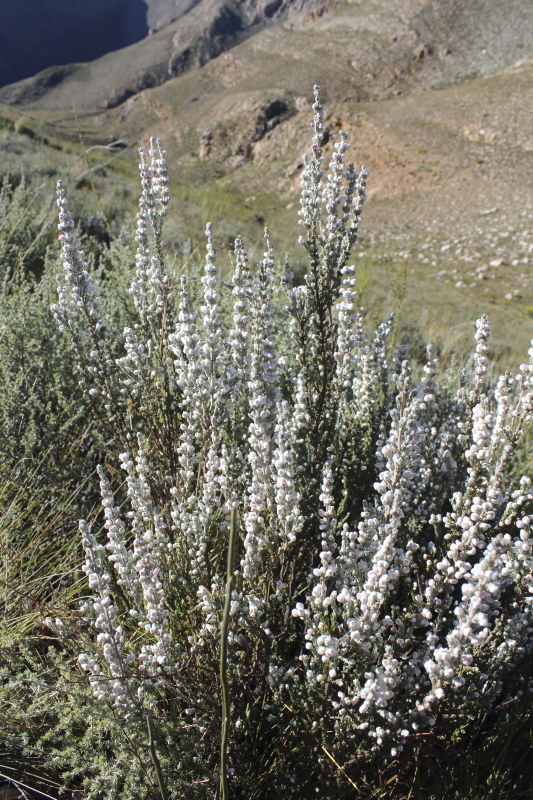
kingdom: Plantae
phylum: Tracheophyta
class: Magnoliopsida
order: Ericales
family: Ericaceae
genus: Erica
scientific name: Erica passerina
